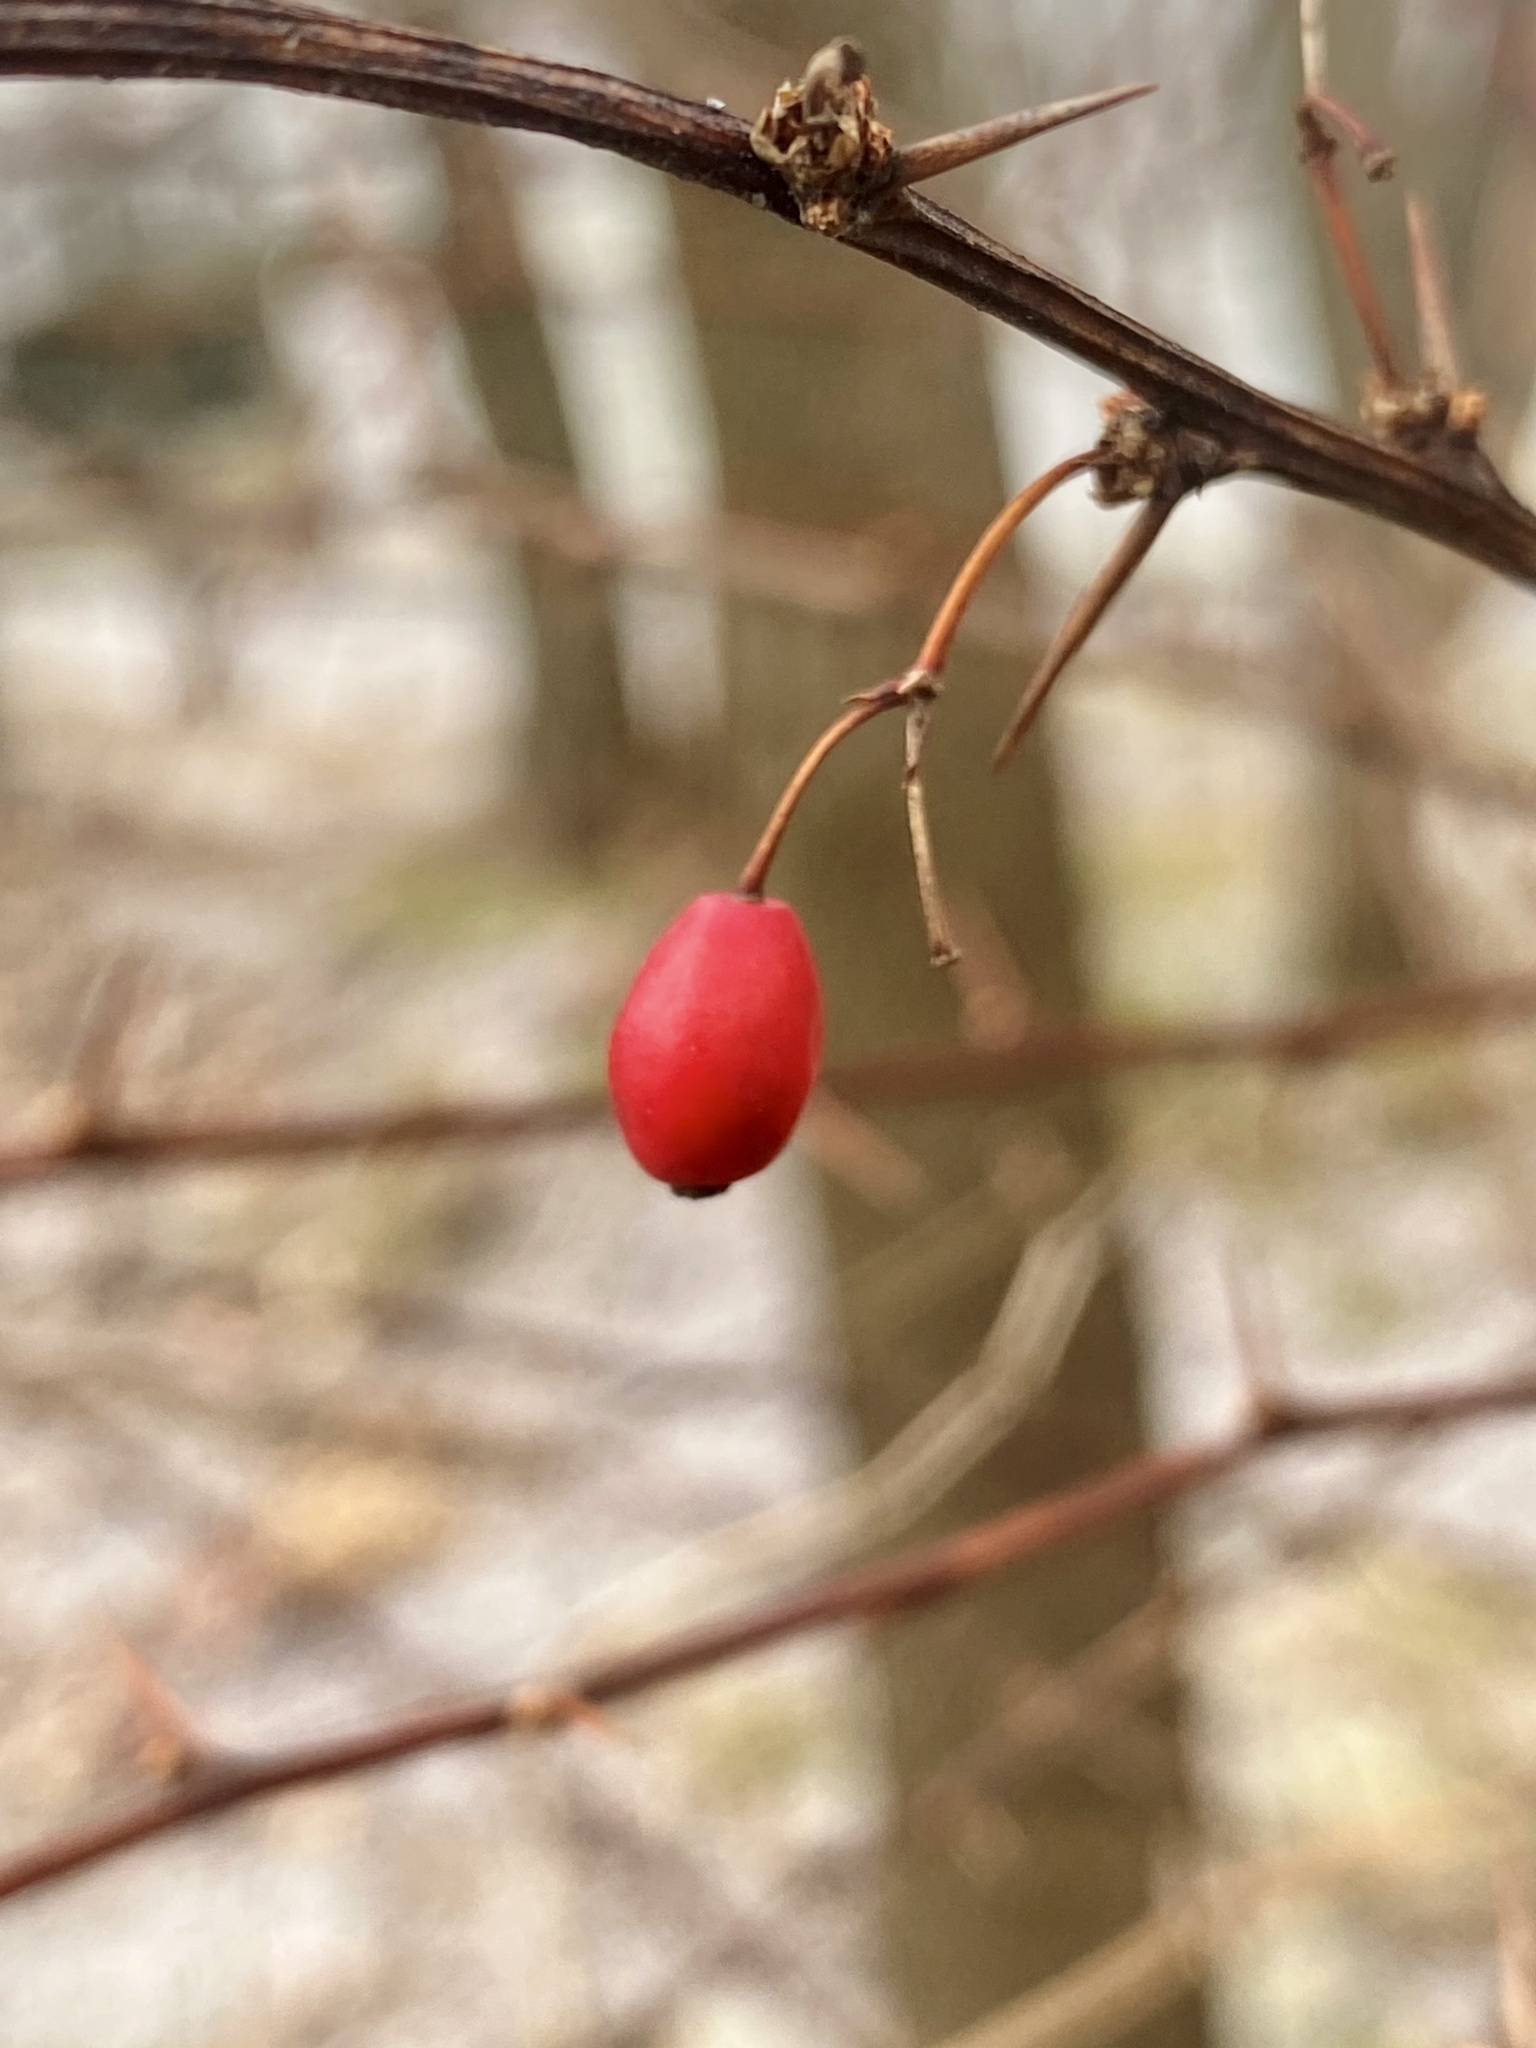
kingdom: Plantae
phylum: Tracheophyta
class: Magnoliopsida
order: Ranunculales
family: Berberidaceae
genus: Berberis
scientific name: Berberis thunbergii
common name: Japanese barberry
